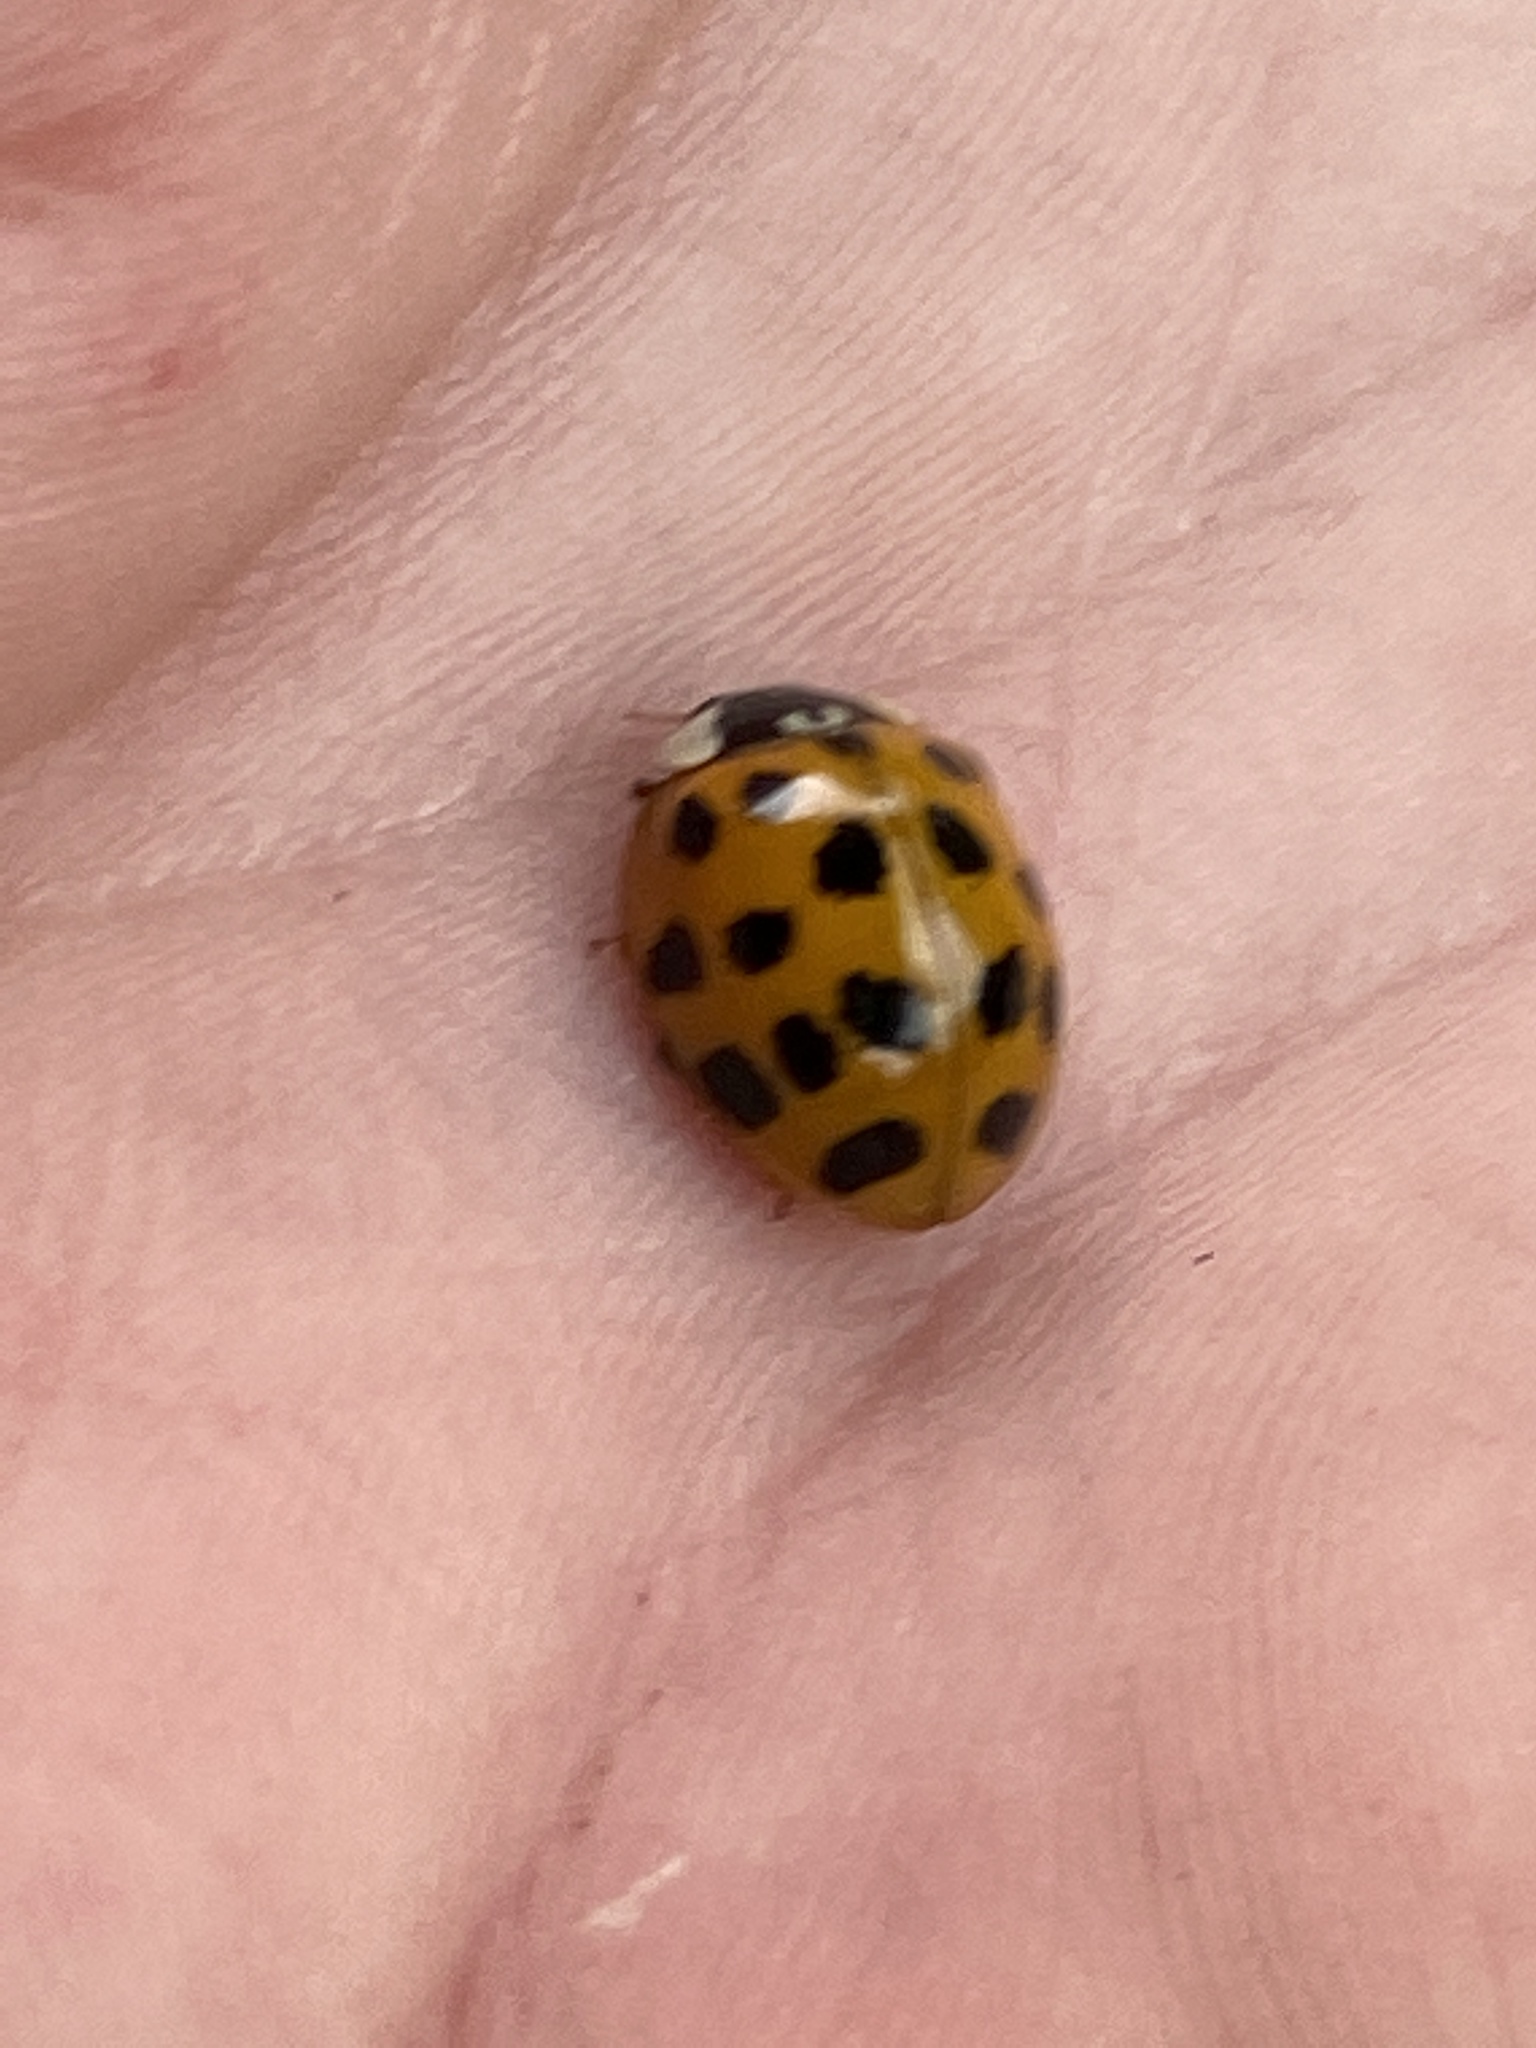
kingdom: Animalia
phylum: Arthropoda
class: Insecta
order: Coleoptera
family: Coccinellidae
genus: Harmonia
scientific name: Harmonia axyridis
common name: Harlequin ladybird
